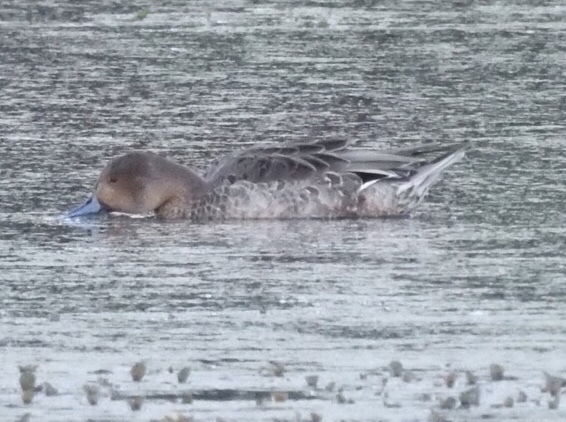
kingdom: Animalia
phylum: Chordata
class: Aves
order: Anseriformes
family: Anatidae
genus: Anas
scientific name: Anas acuta
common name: Northern pintail
